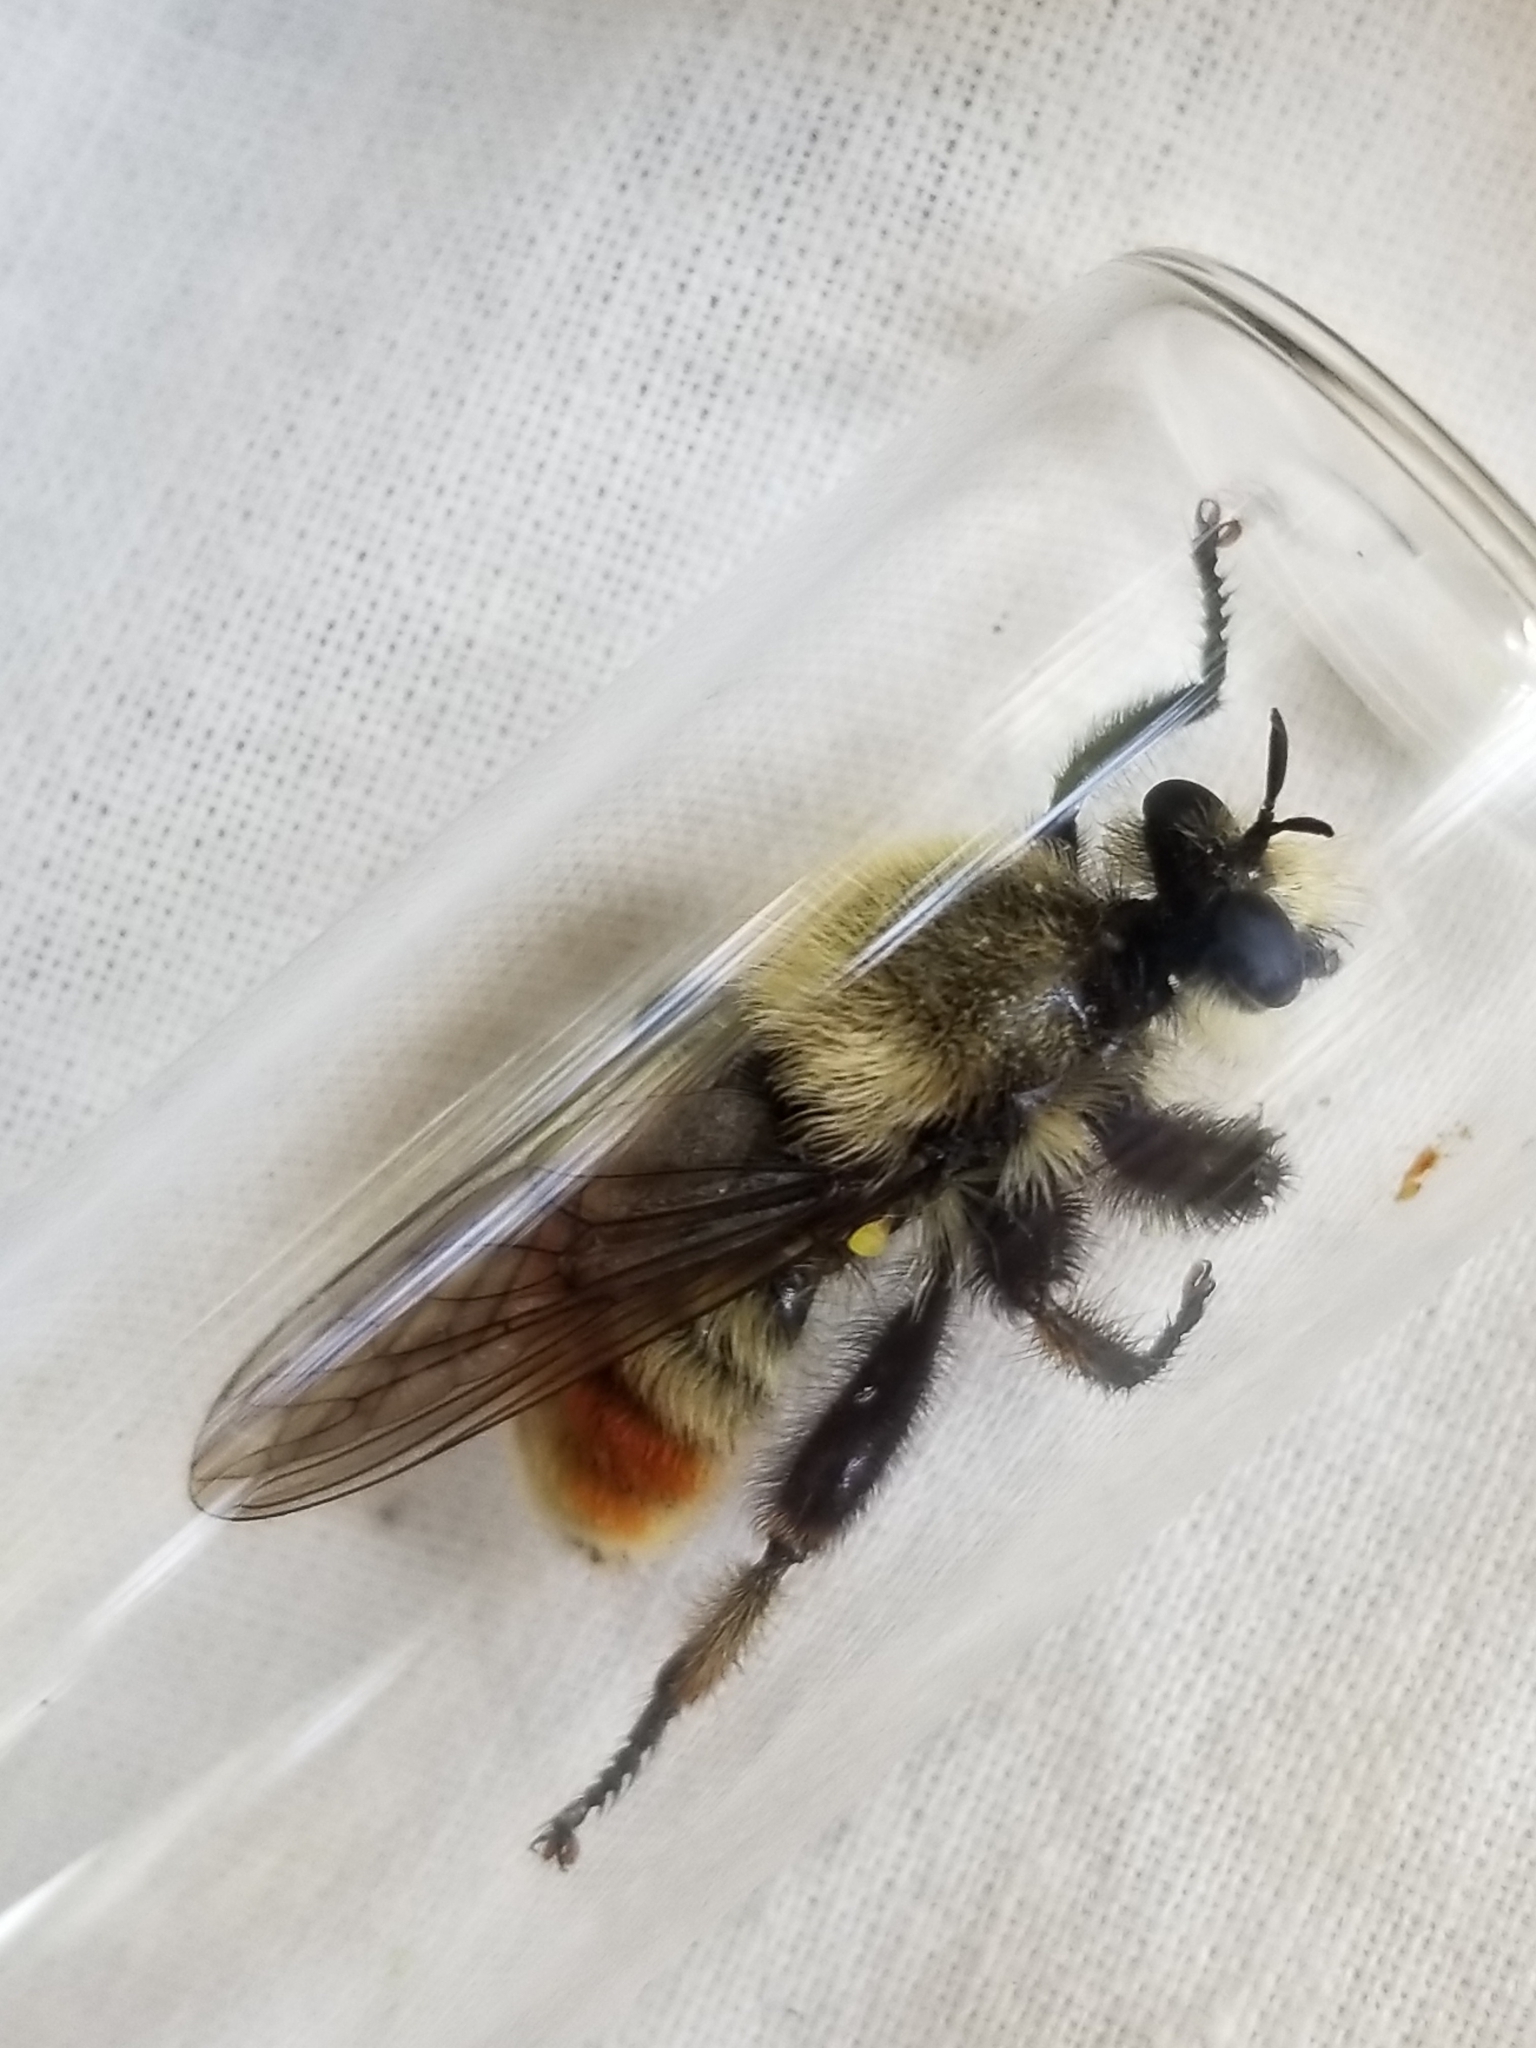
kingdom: Animalia
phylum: Arthropoda
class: Insecta
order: Diptera
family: Asilidae
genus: Laphria
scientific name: Laphria fernaldi
